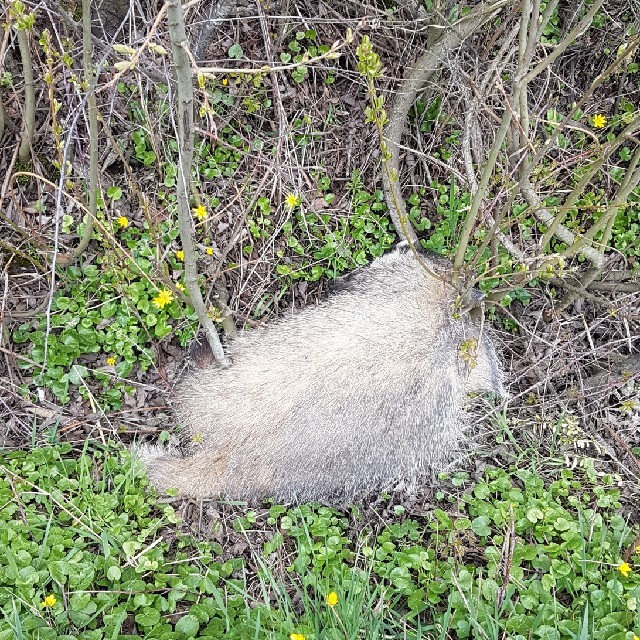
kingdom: Animalia
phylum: Chordata
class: Mammalia
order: Carnivora
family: Mustelidae
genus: Meles
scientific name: Meles meles
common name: Eurasian badger
